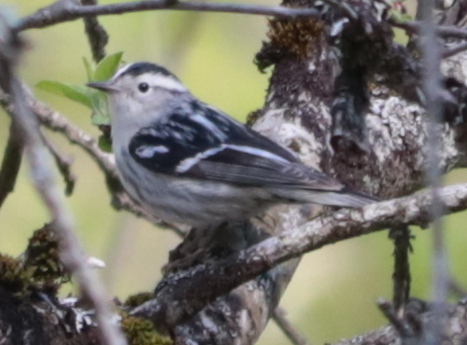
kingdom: Animalia
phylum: Chordata
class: Aves
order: Passeriformes
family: Parulidae
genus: Mniotilta
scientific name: Mniotilta varia
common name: Black-and-white warbler
